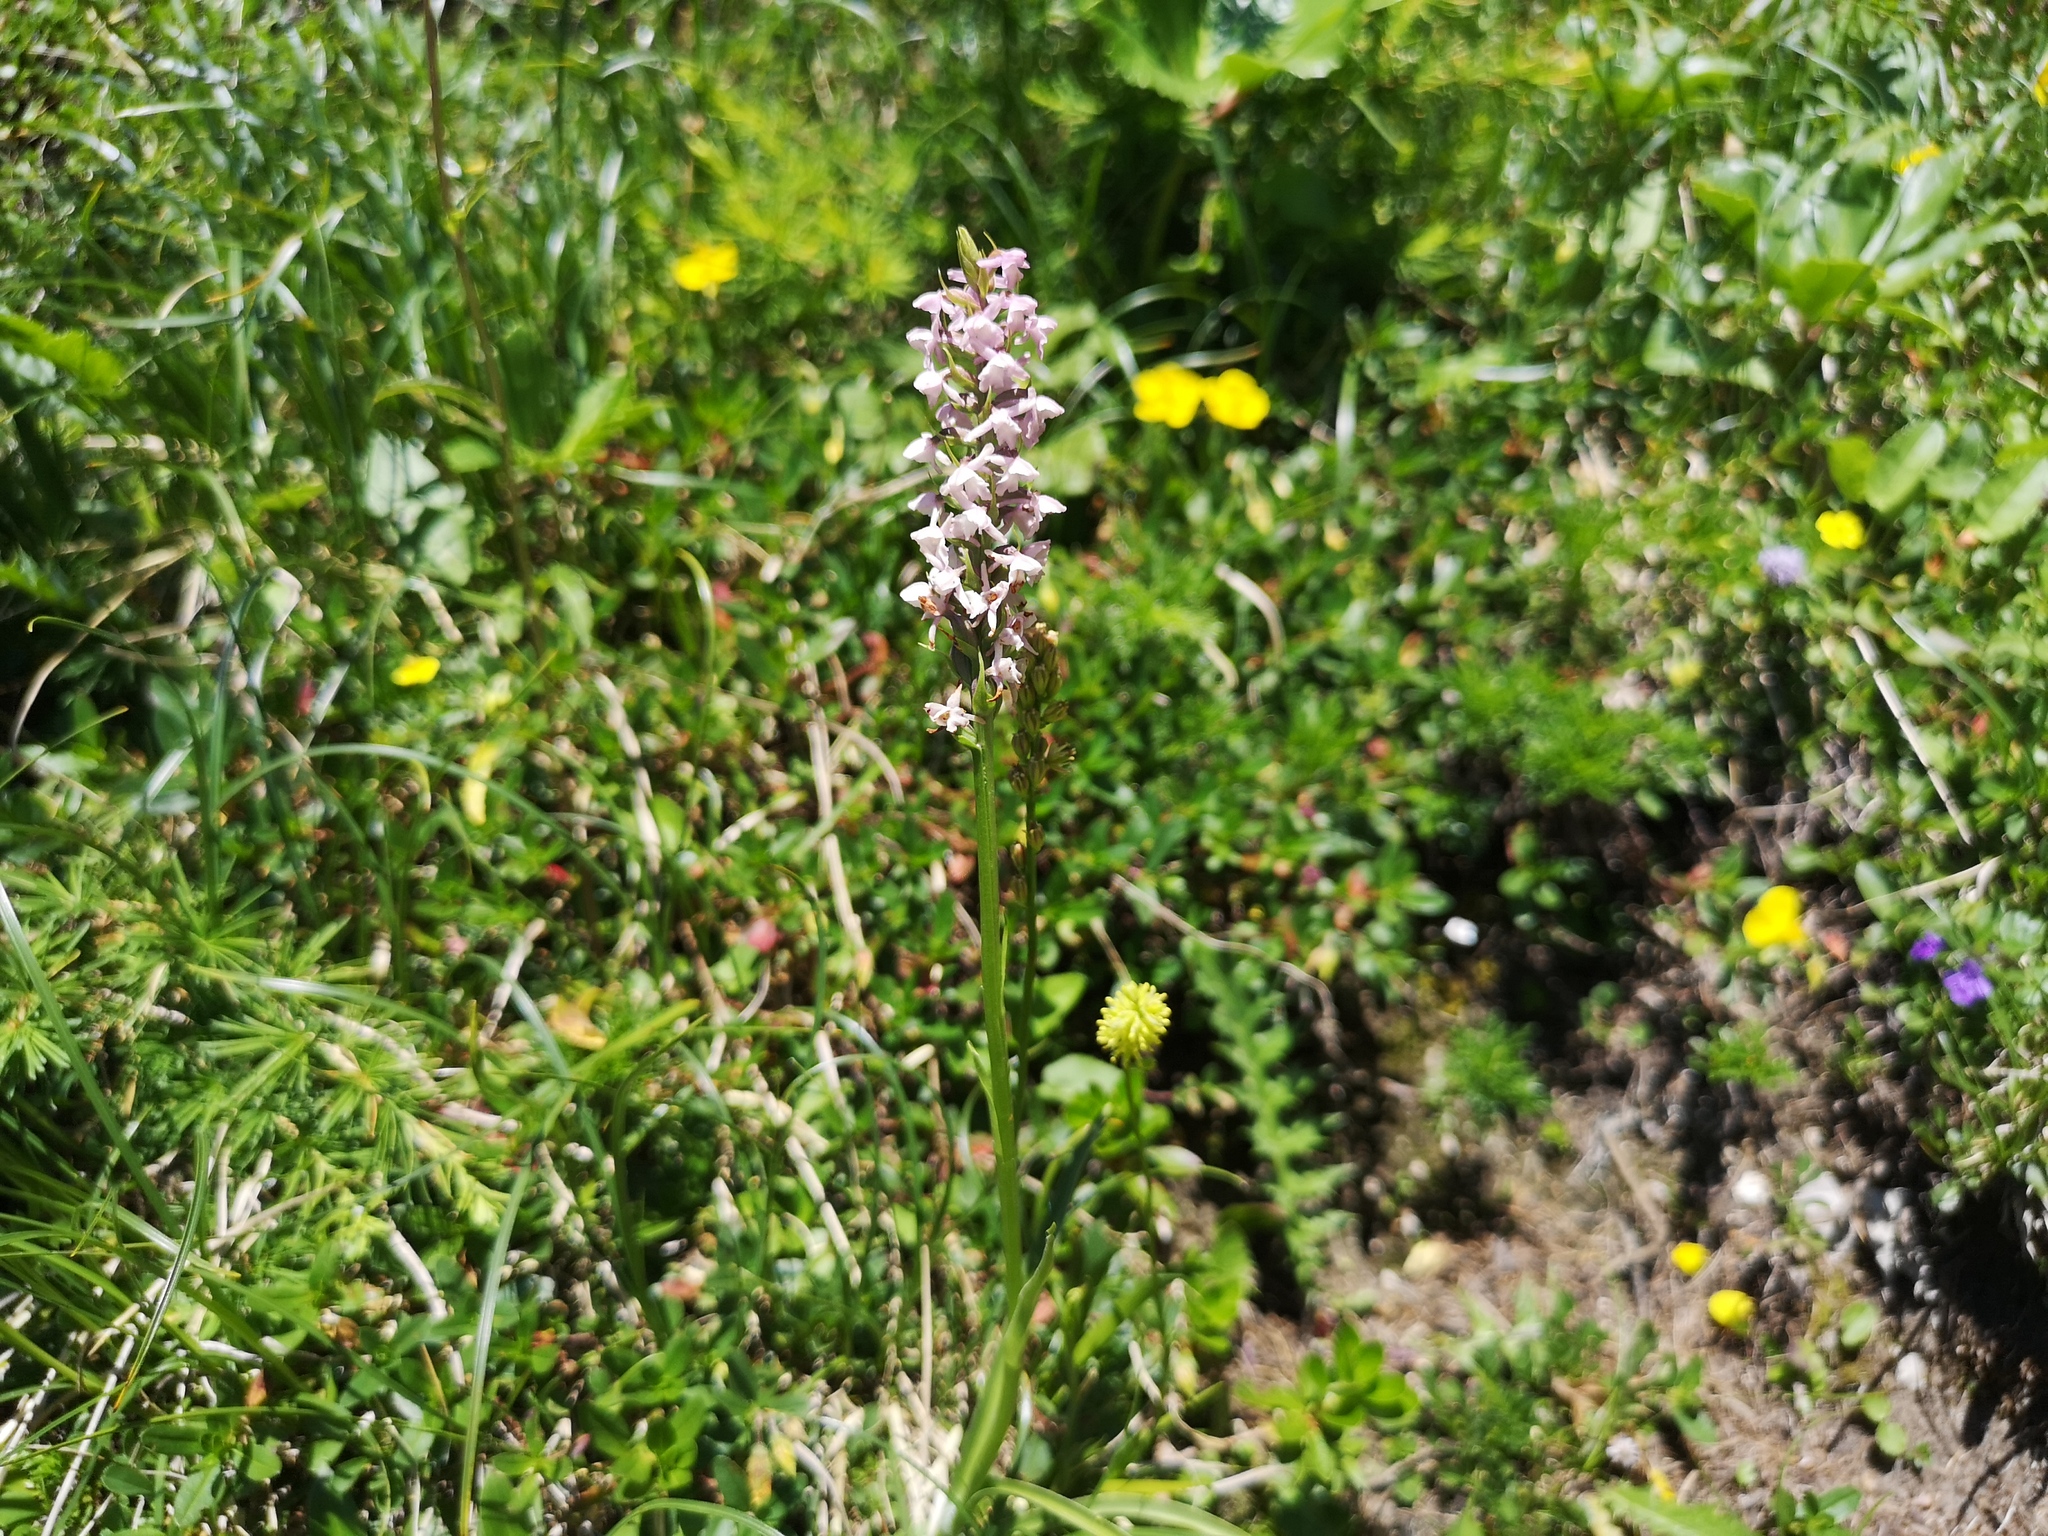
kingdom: Plantae
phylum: Tracheophyta
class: Liliopsida
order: Asparagales
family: Orchidaceae
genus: Gymnadenia
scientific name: Gymnadenia odoratissima
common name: Scented gymnadenia
